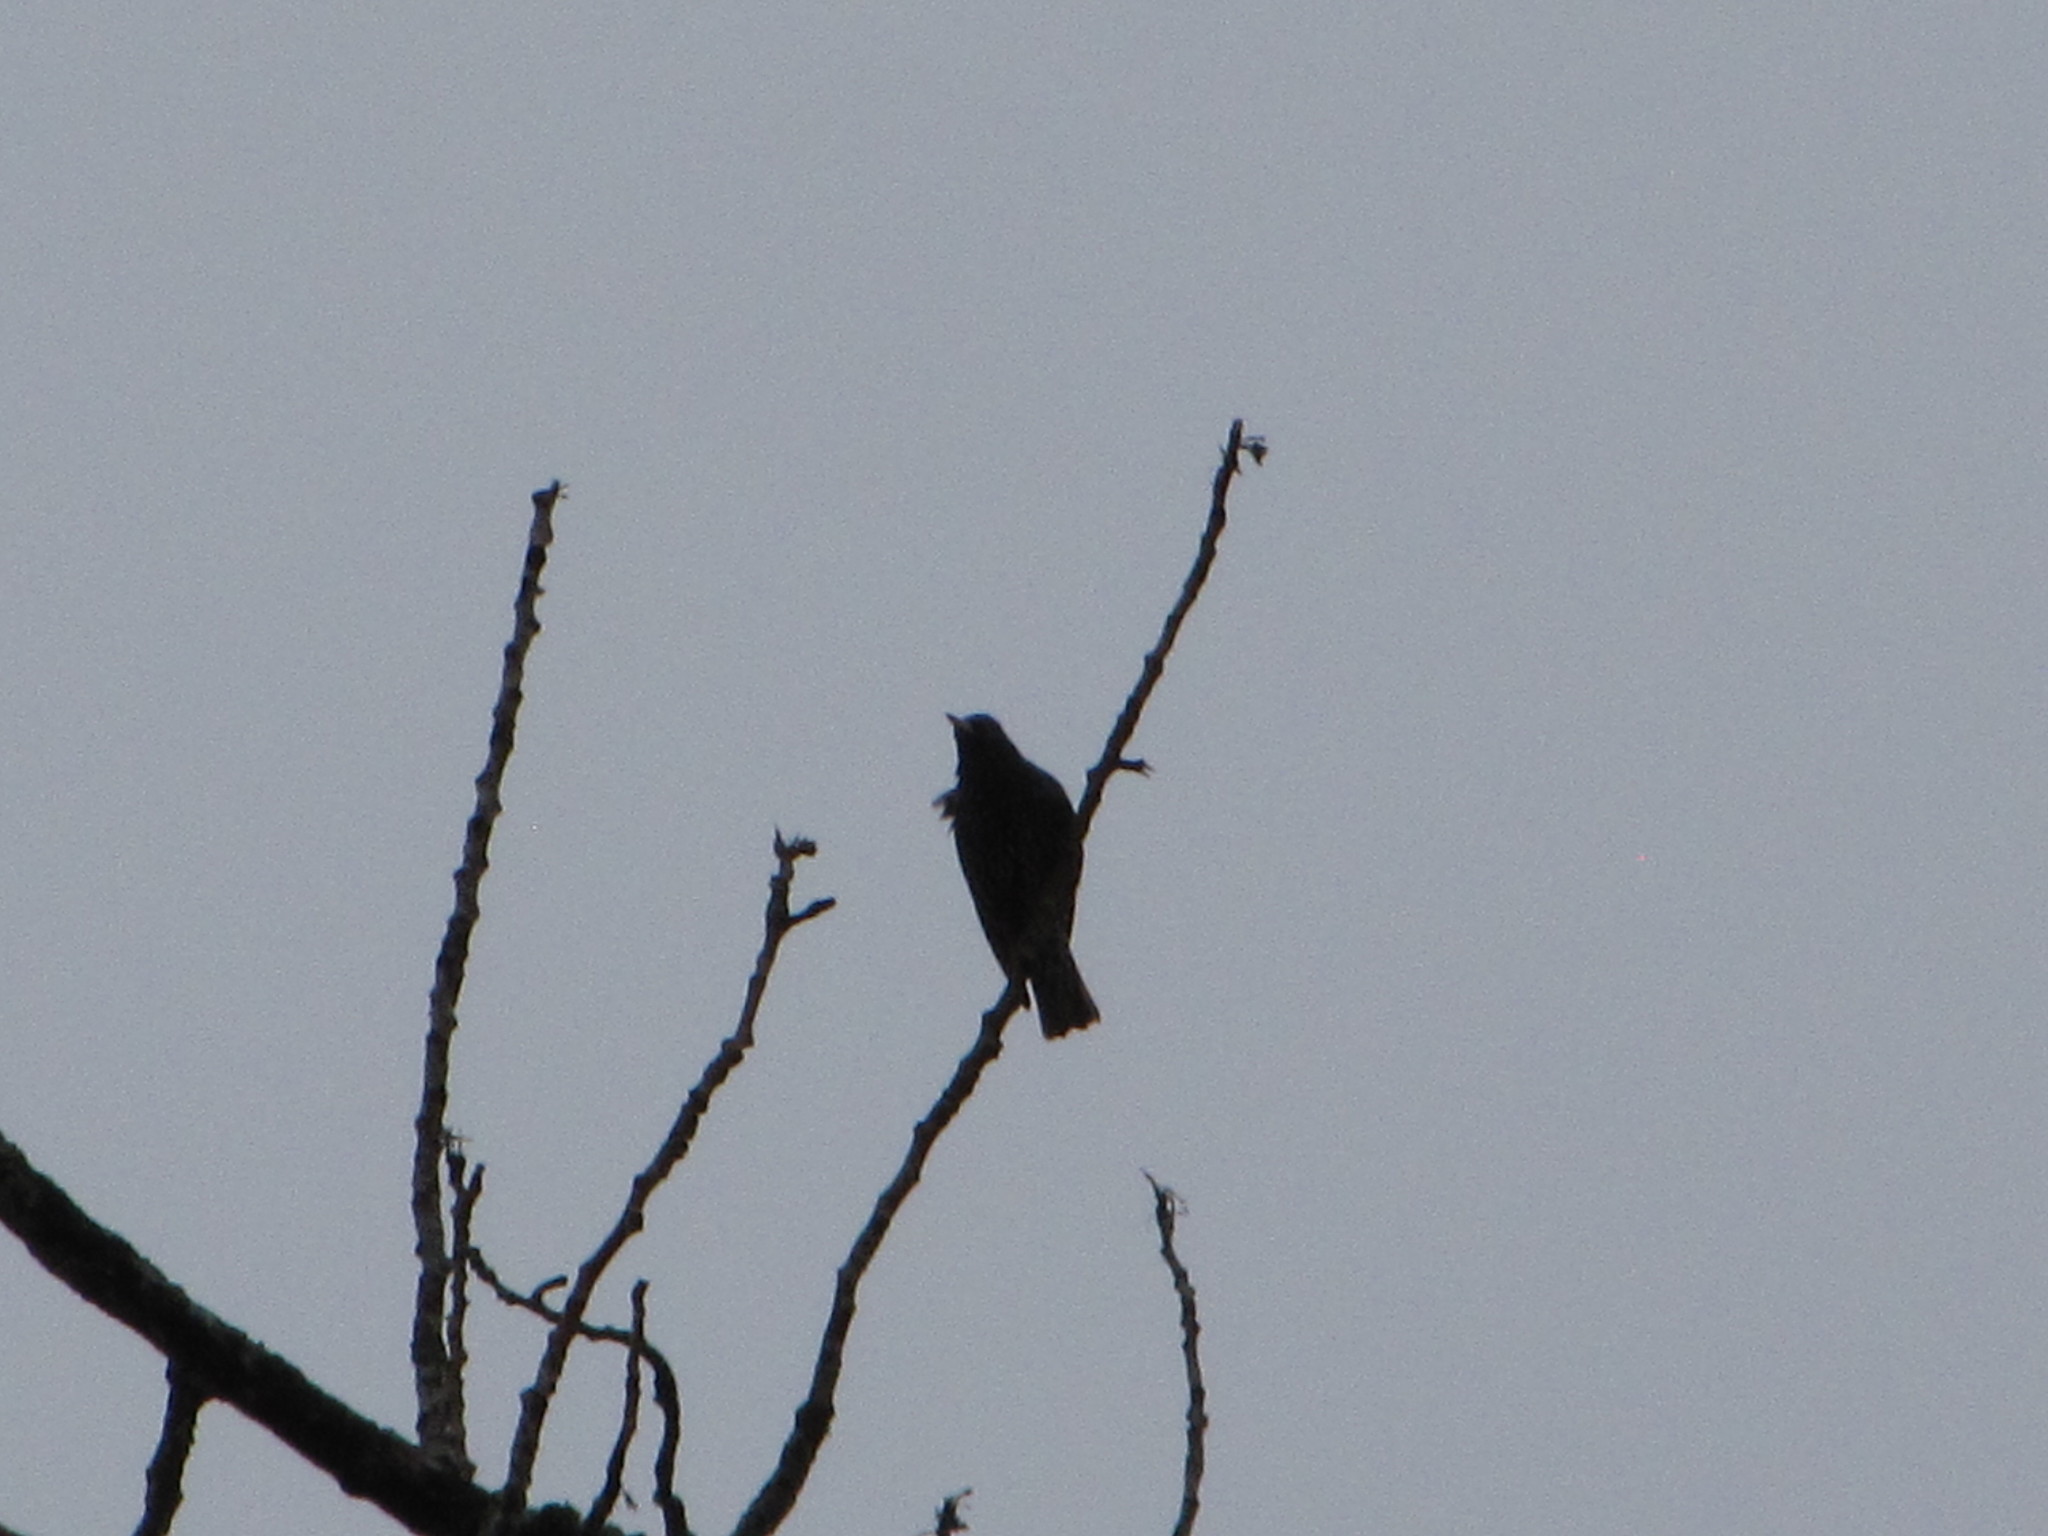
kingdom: Animalia
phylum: Chordata
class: Aves
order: Passeriformes
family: Sturnidae
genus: Sturnus
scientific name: Sturnus vulgaris
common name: Common starling
